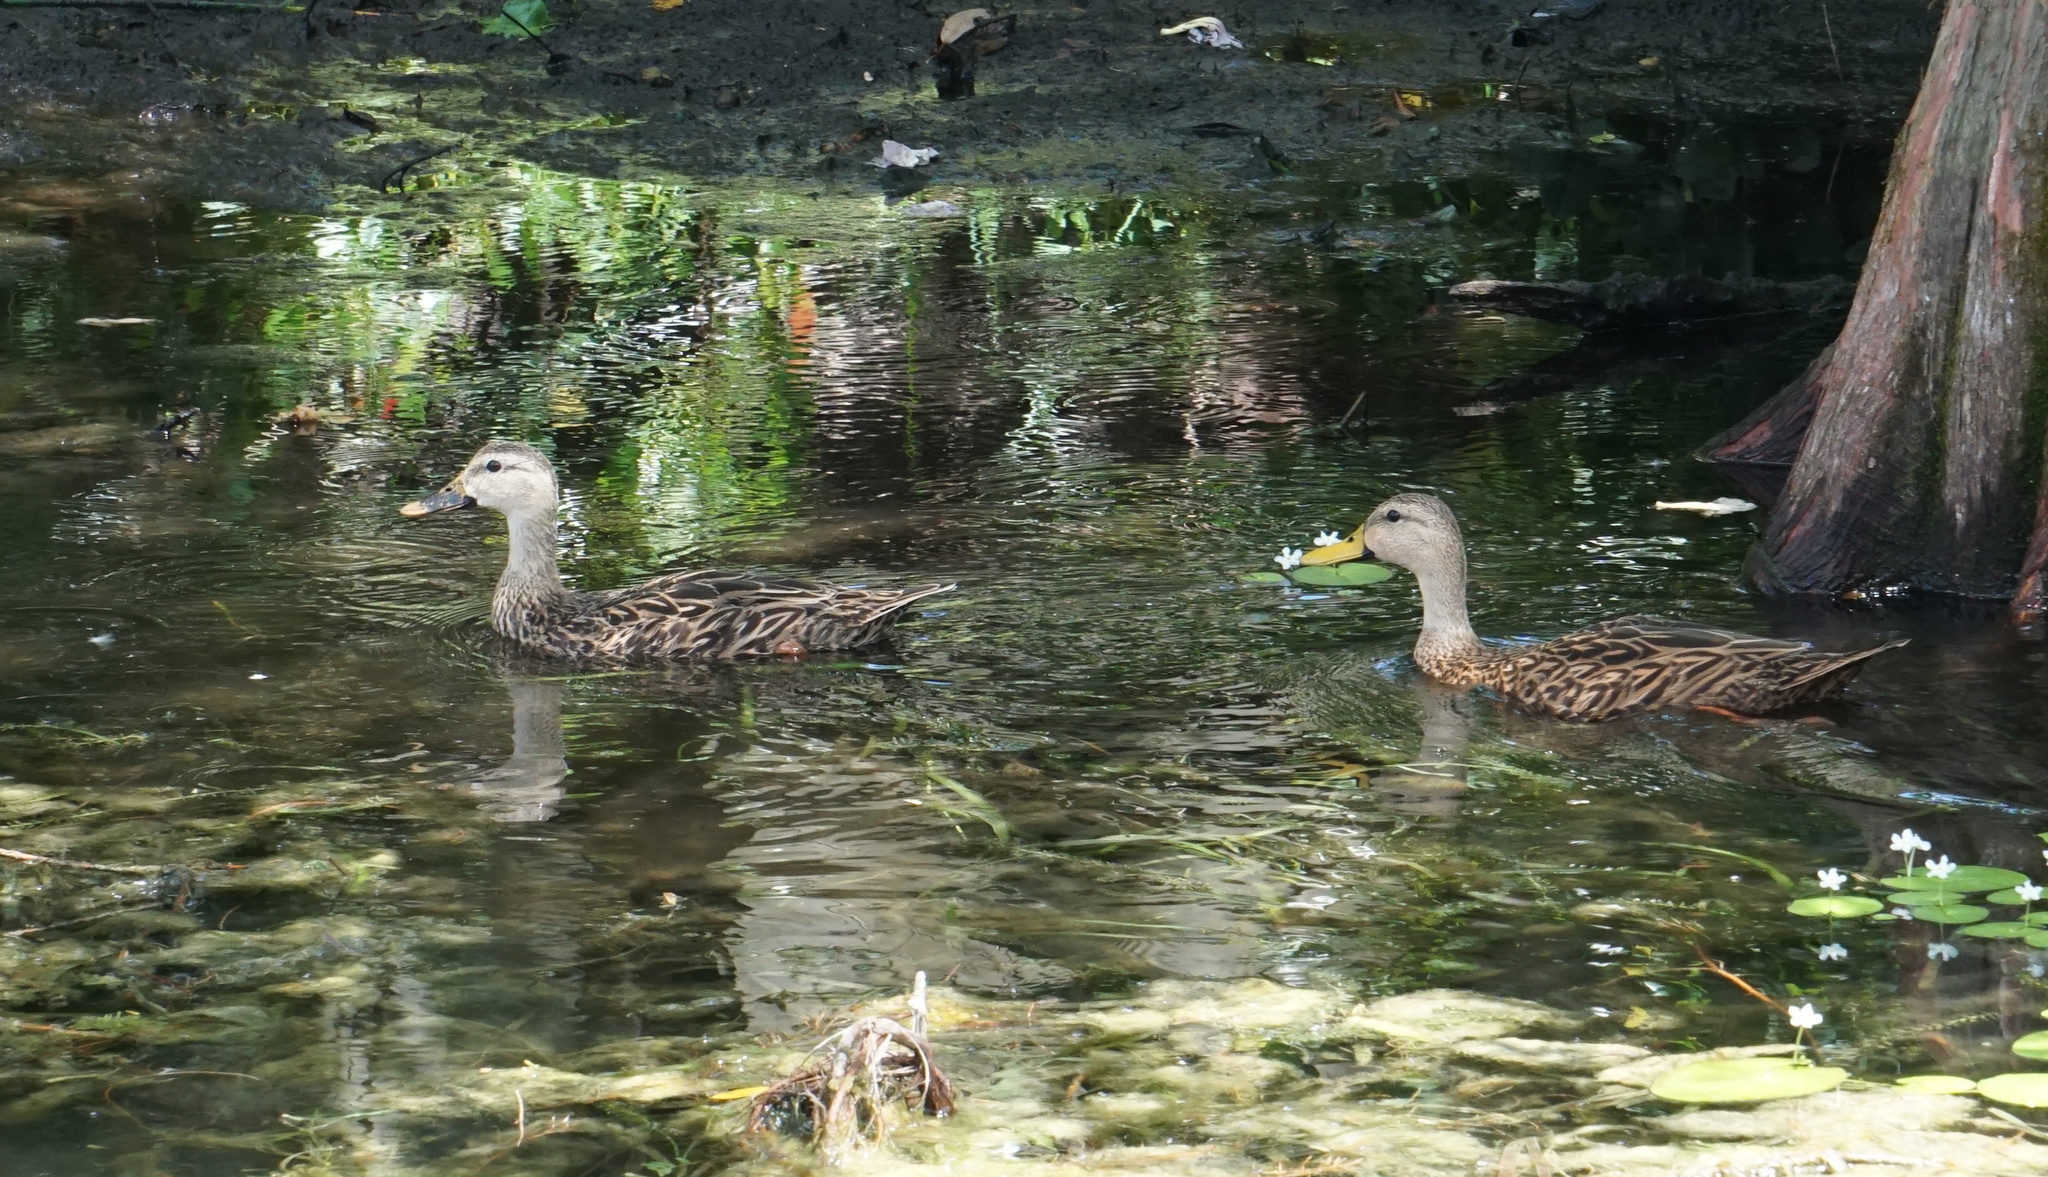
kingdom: Animalia
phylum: Chordata
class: Aves
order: Anseriformes
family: Anatidae
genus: Anas
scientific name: Anas
